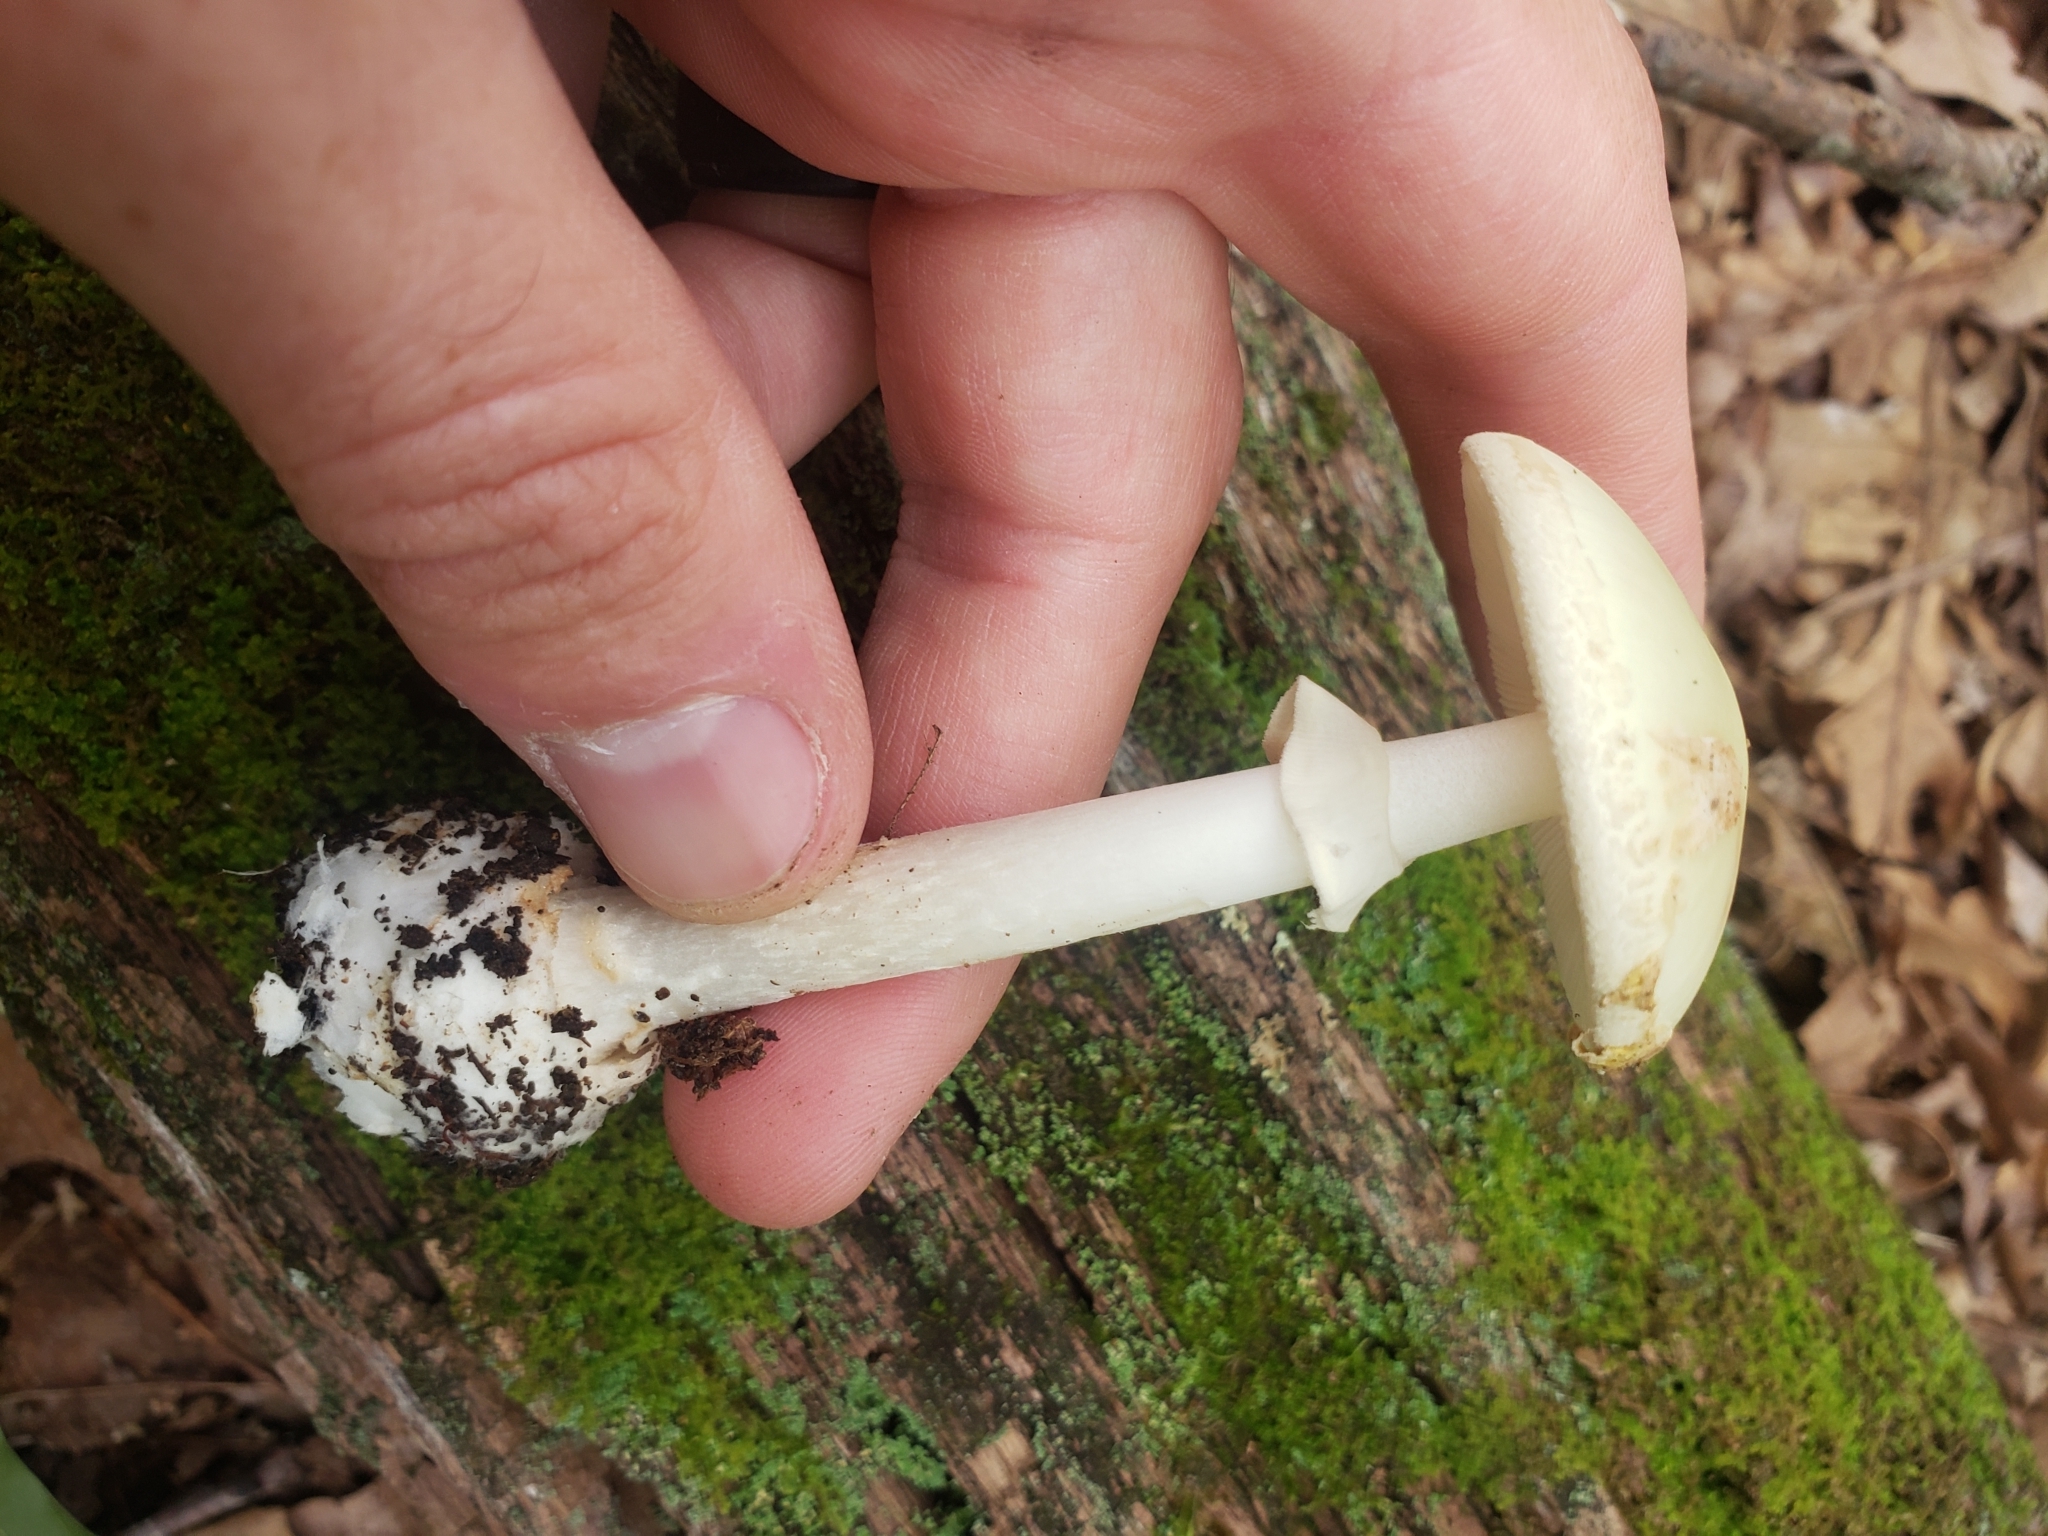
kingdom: Fungi
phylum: Basidiomycota
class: Agaricomycetes
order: Agaricales
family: Amanitaceae
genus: Amanita
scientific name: Amanita lavendula
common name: Coker's lavender staining amanita
